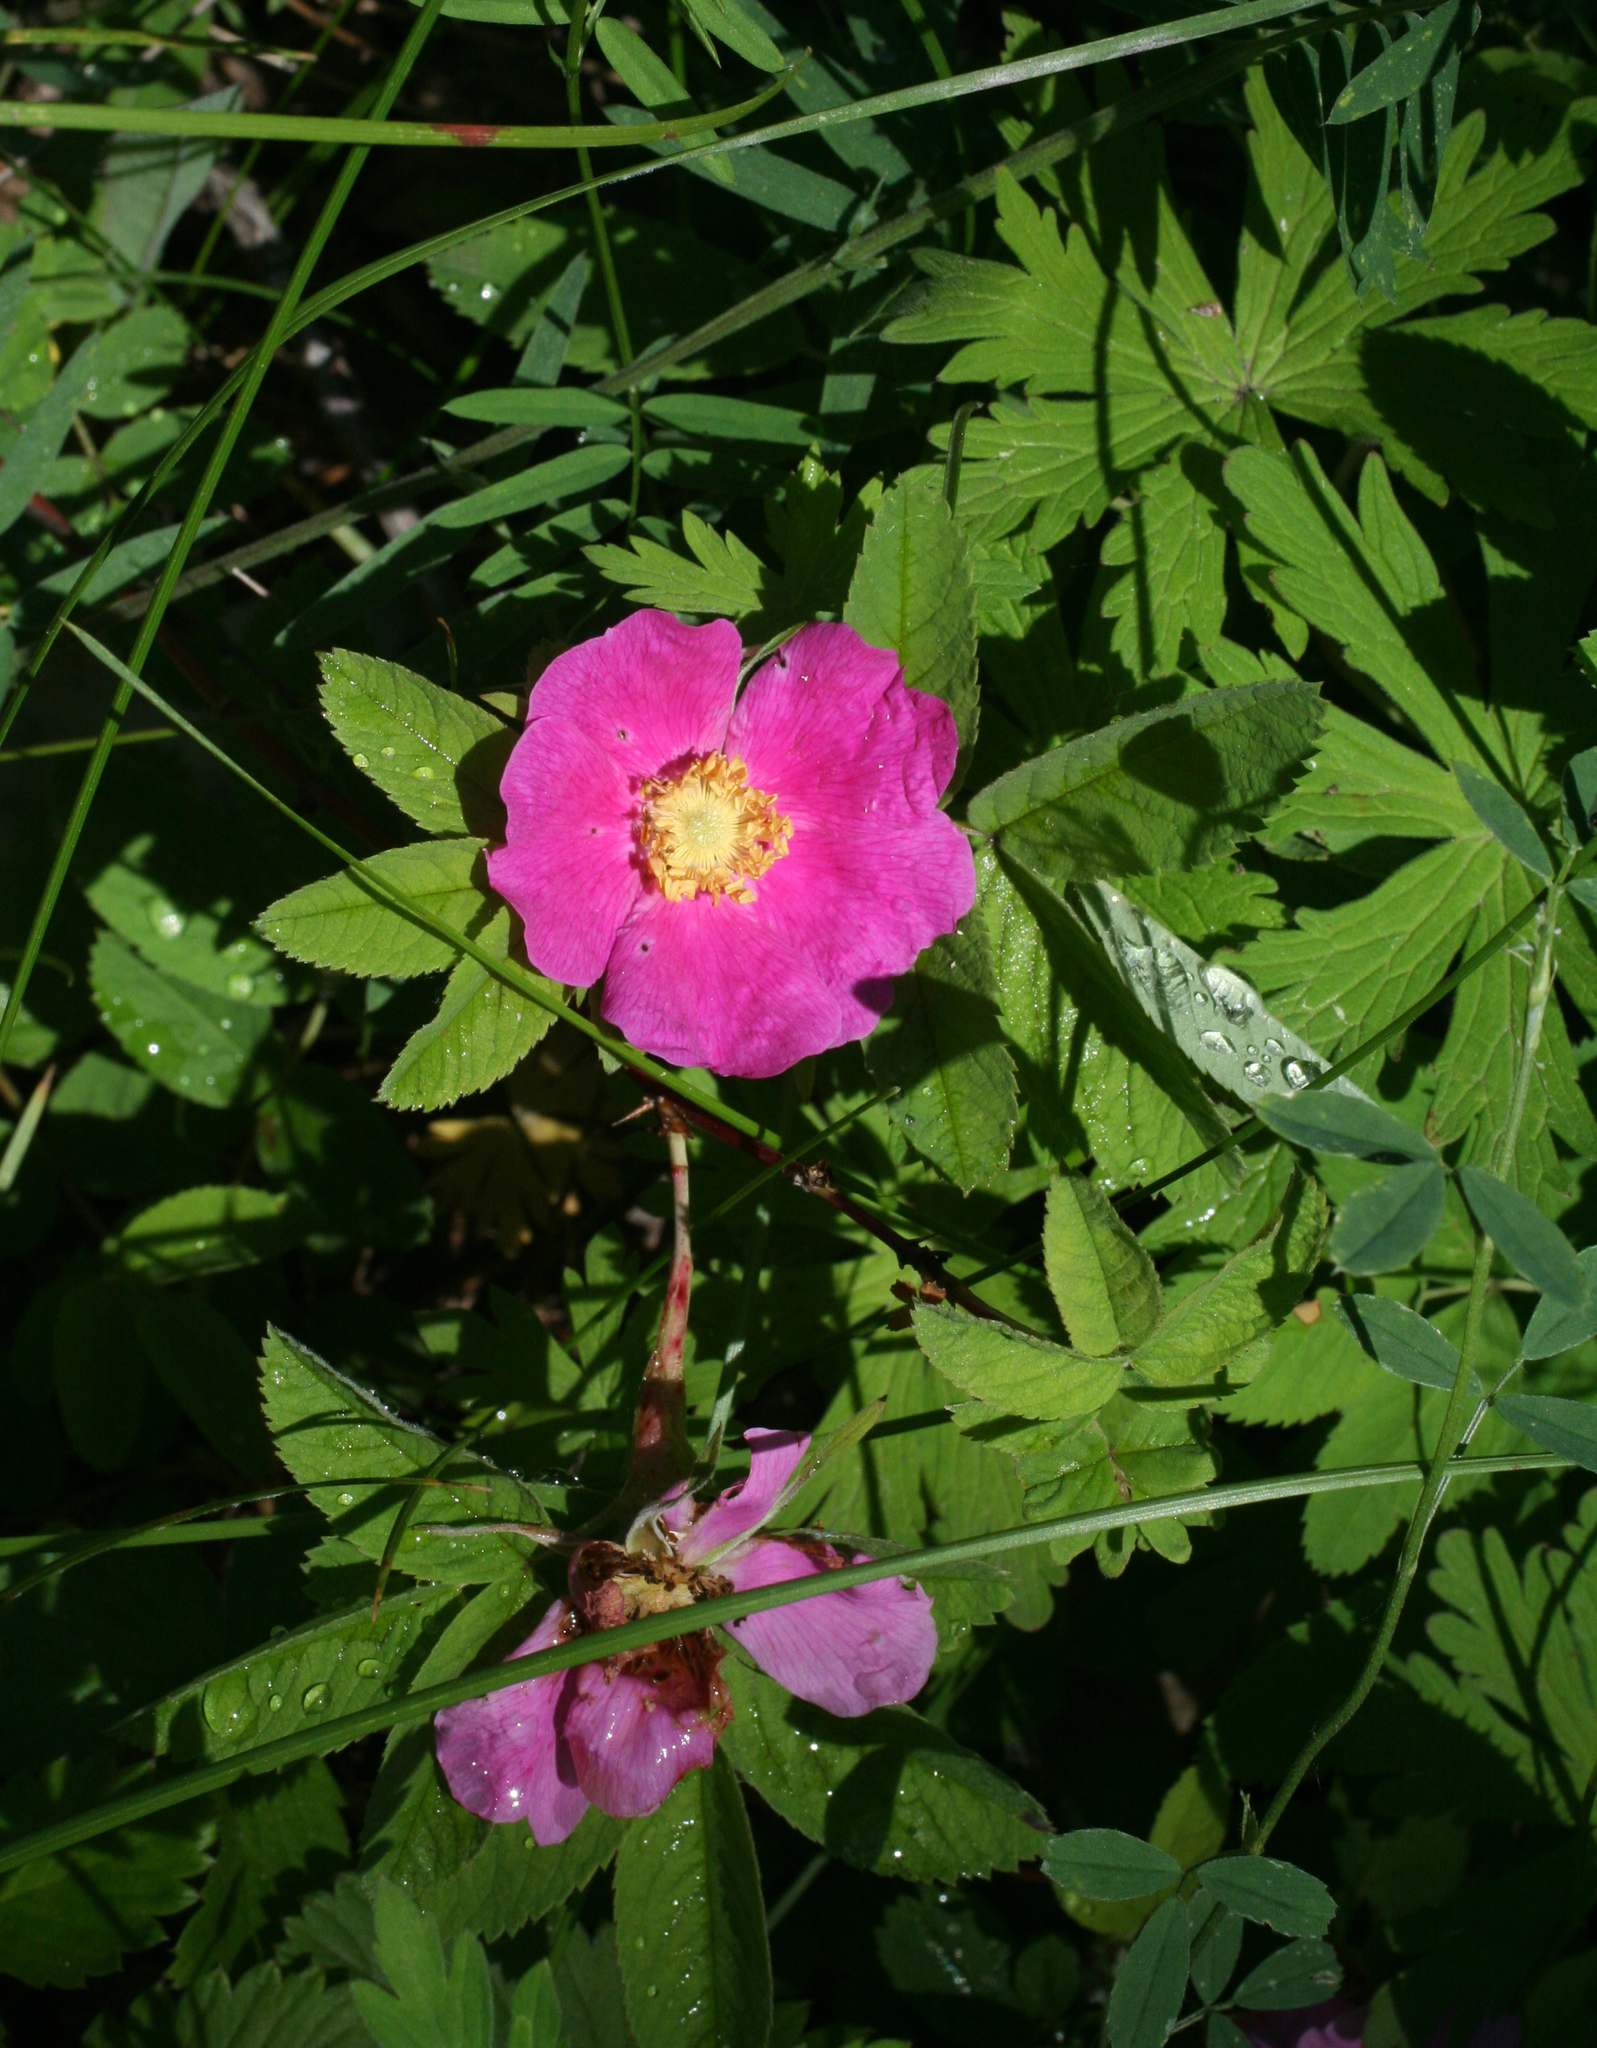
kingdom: Plantae
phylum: Tracheophyta
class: Magnoliopsida
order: Rosales
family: Rosaceae
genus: Rosa
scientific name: Rosa majalis
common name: Cinnamon rose
